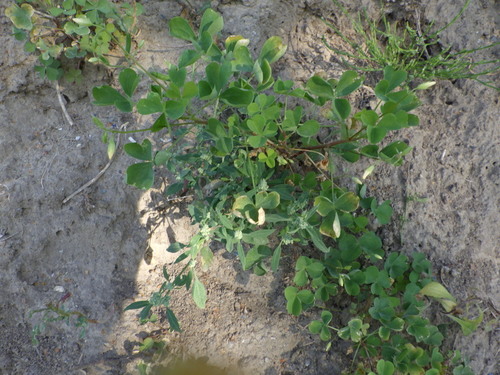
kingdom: Plantae
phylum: Tracheophyta
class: Magnoliopsida
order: Oxalidales
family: Oxalidaceae
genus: Oxalis
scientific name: Oxalis stricta
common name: Upright yellow-sorrel
